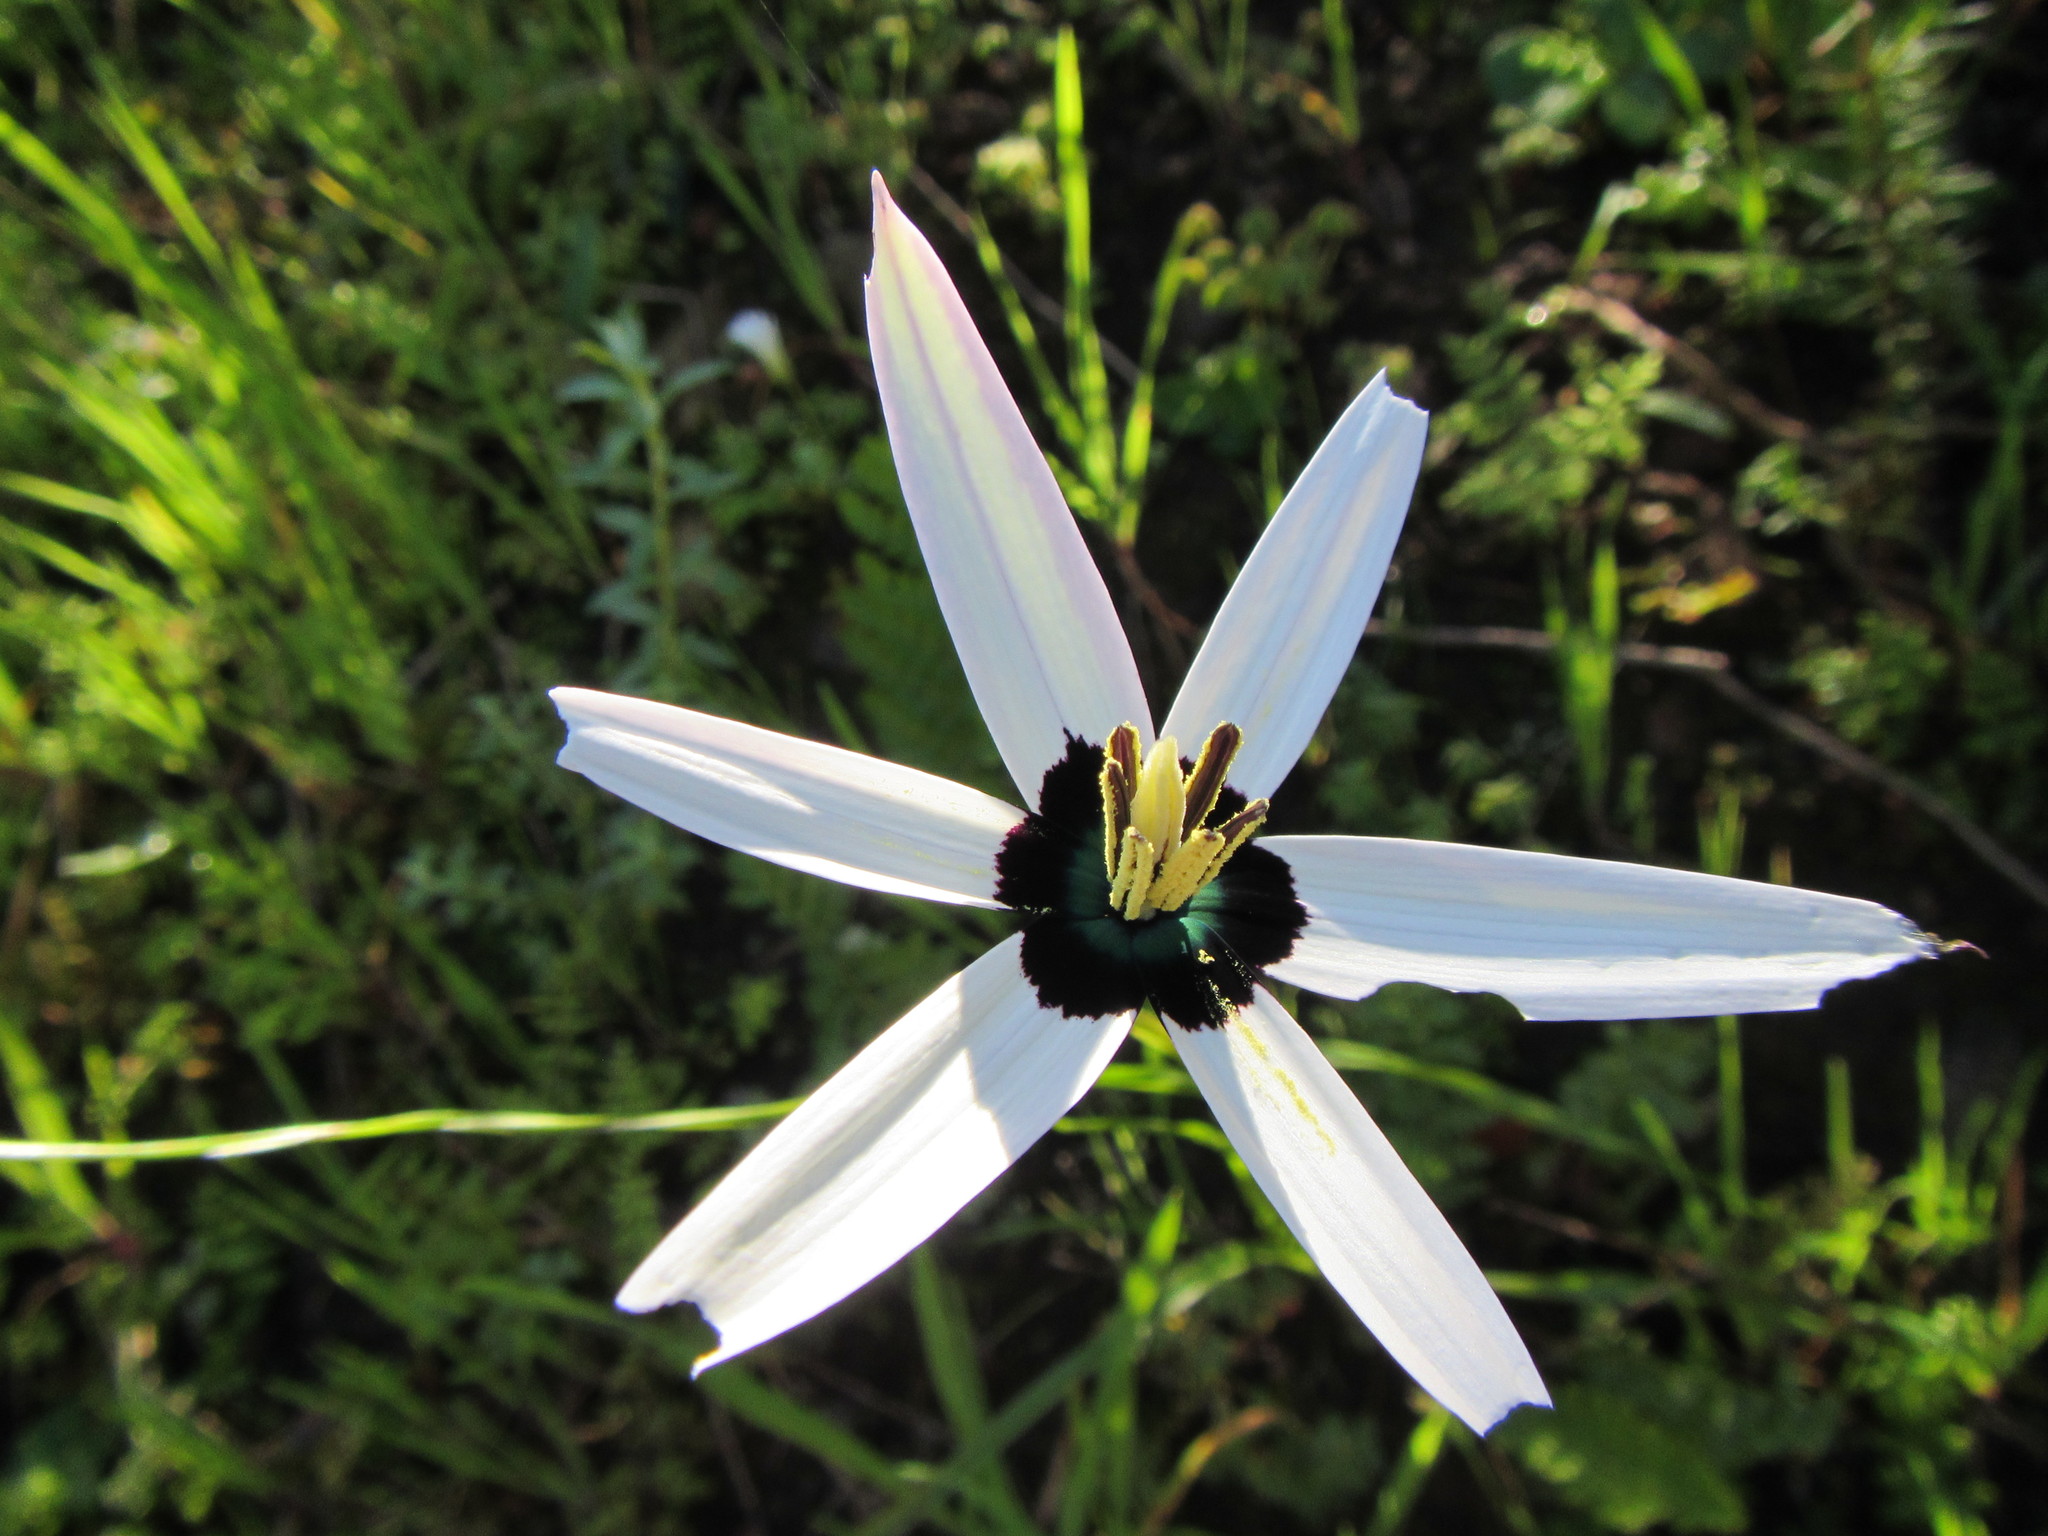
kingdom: Plantae
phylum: Tracheophyta
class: Liliopsida
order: Asparagales
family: Hypoxidaceae
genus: Pauridia
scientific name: Pauridia capensis
